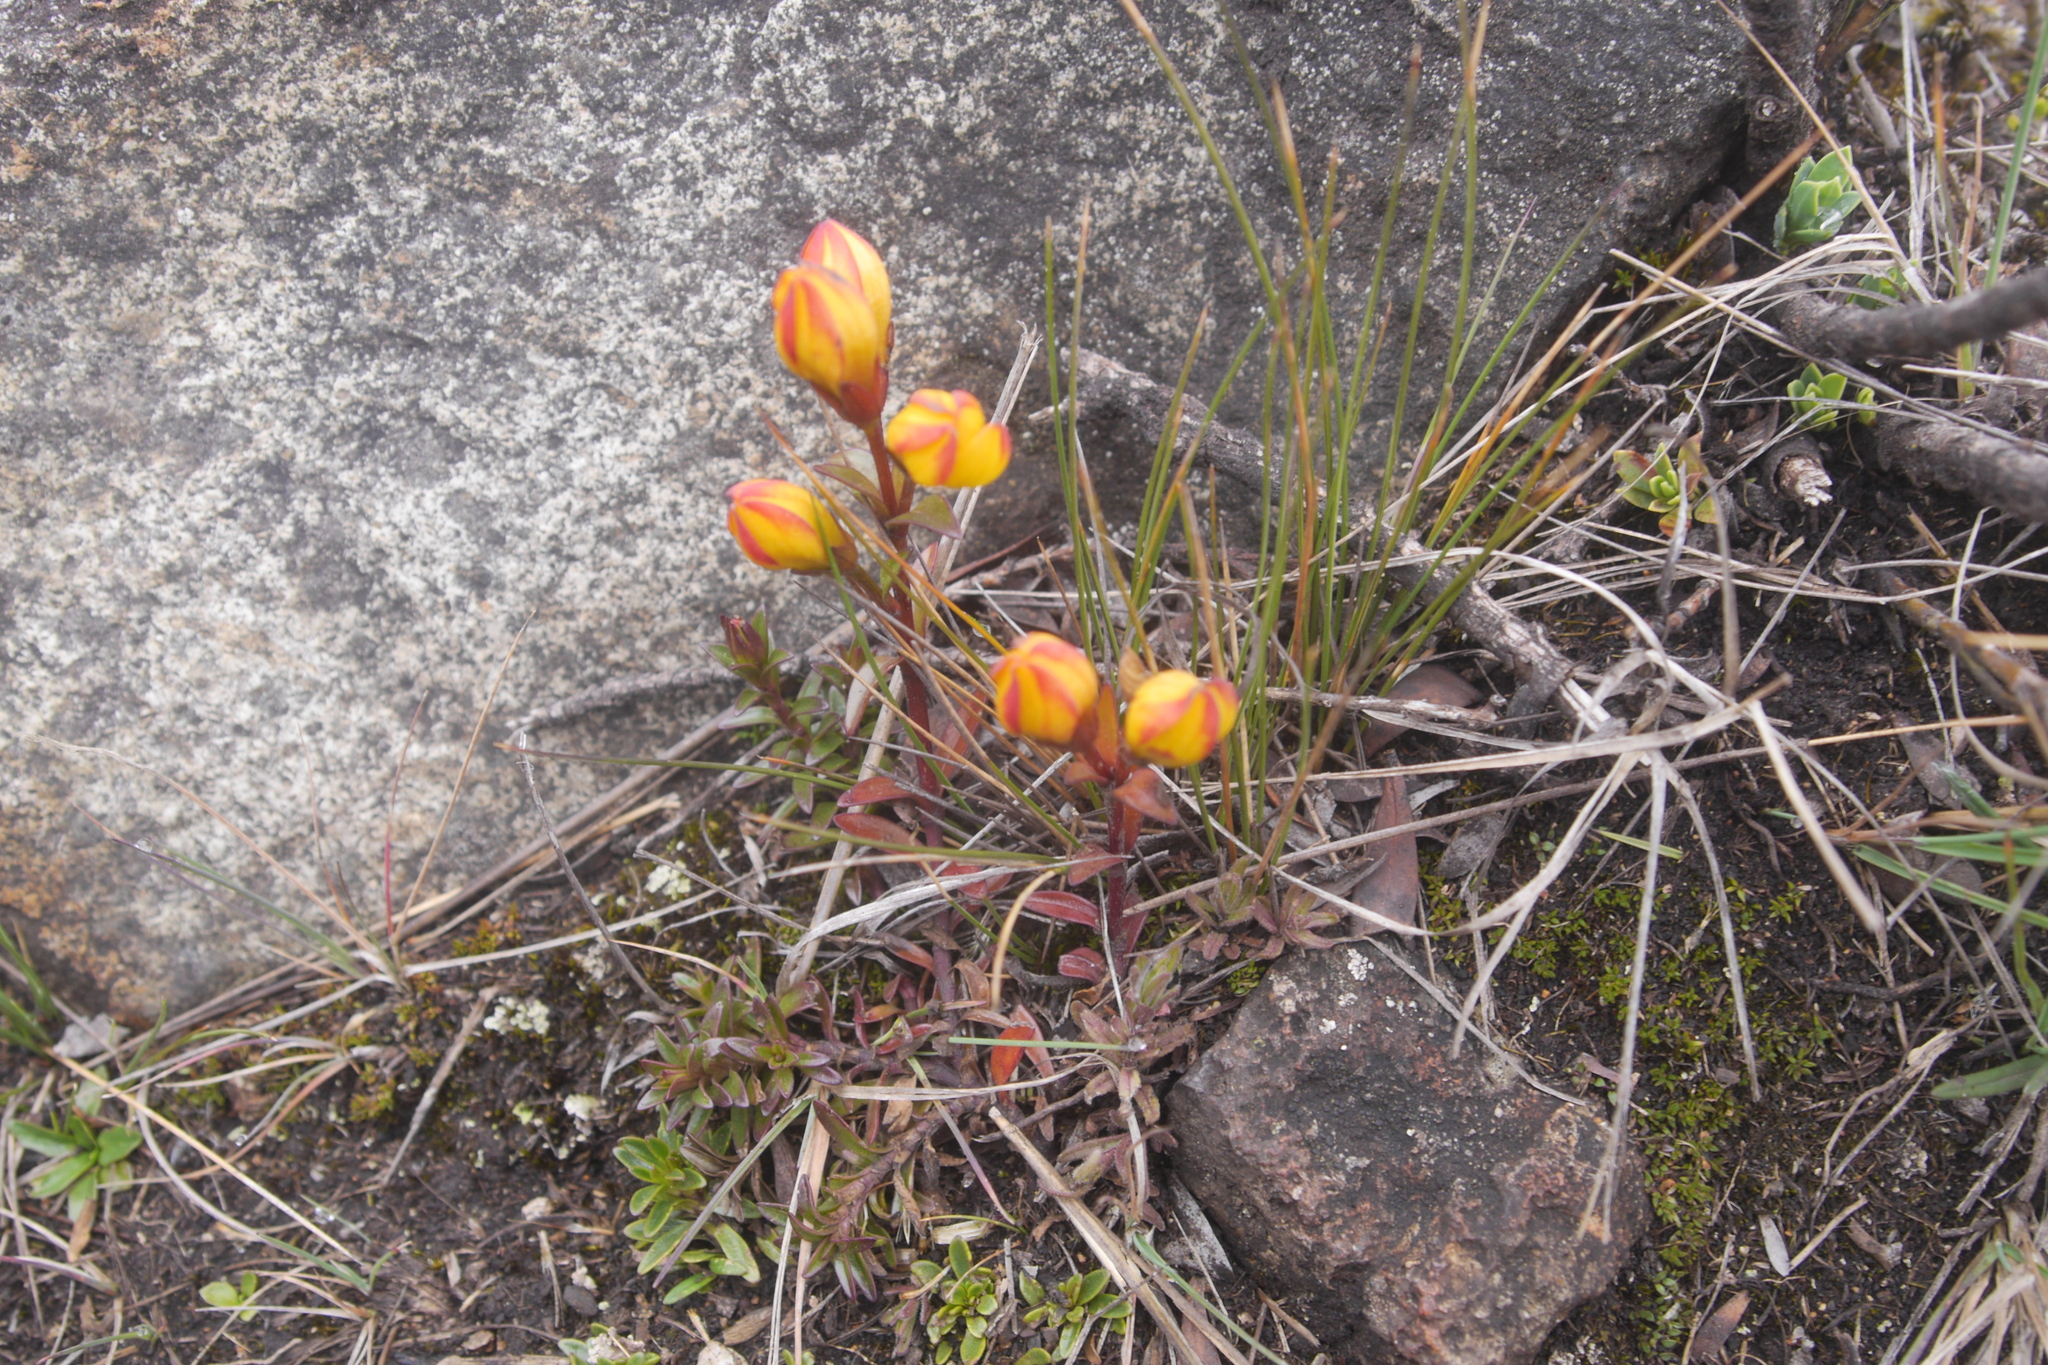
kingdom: Plantae
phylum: Tracheophyta
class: Magnoliopsida
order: Gentianales
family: Gentianaceae
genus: Gentianella
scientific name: Gentianella hirculus
